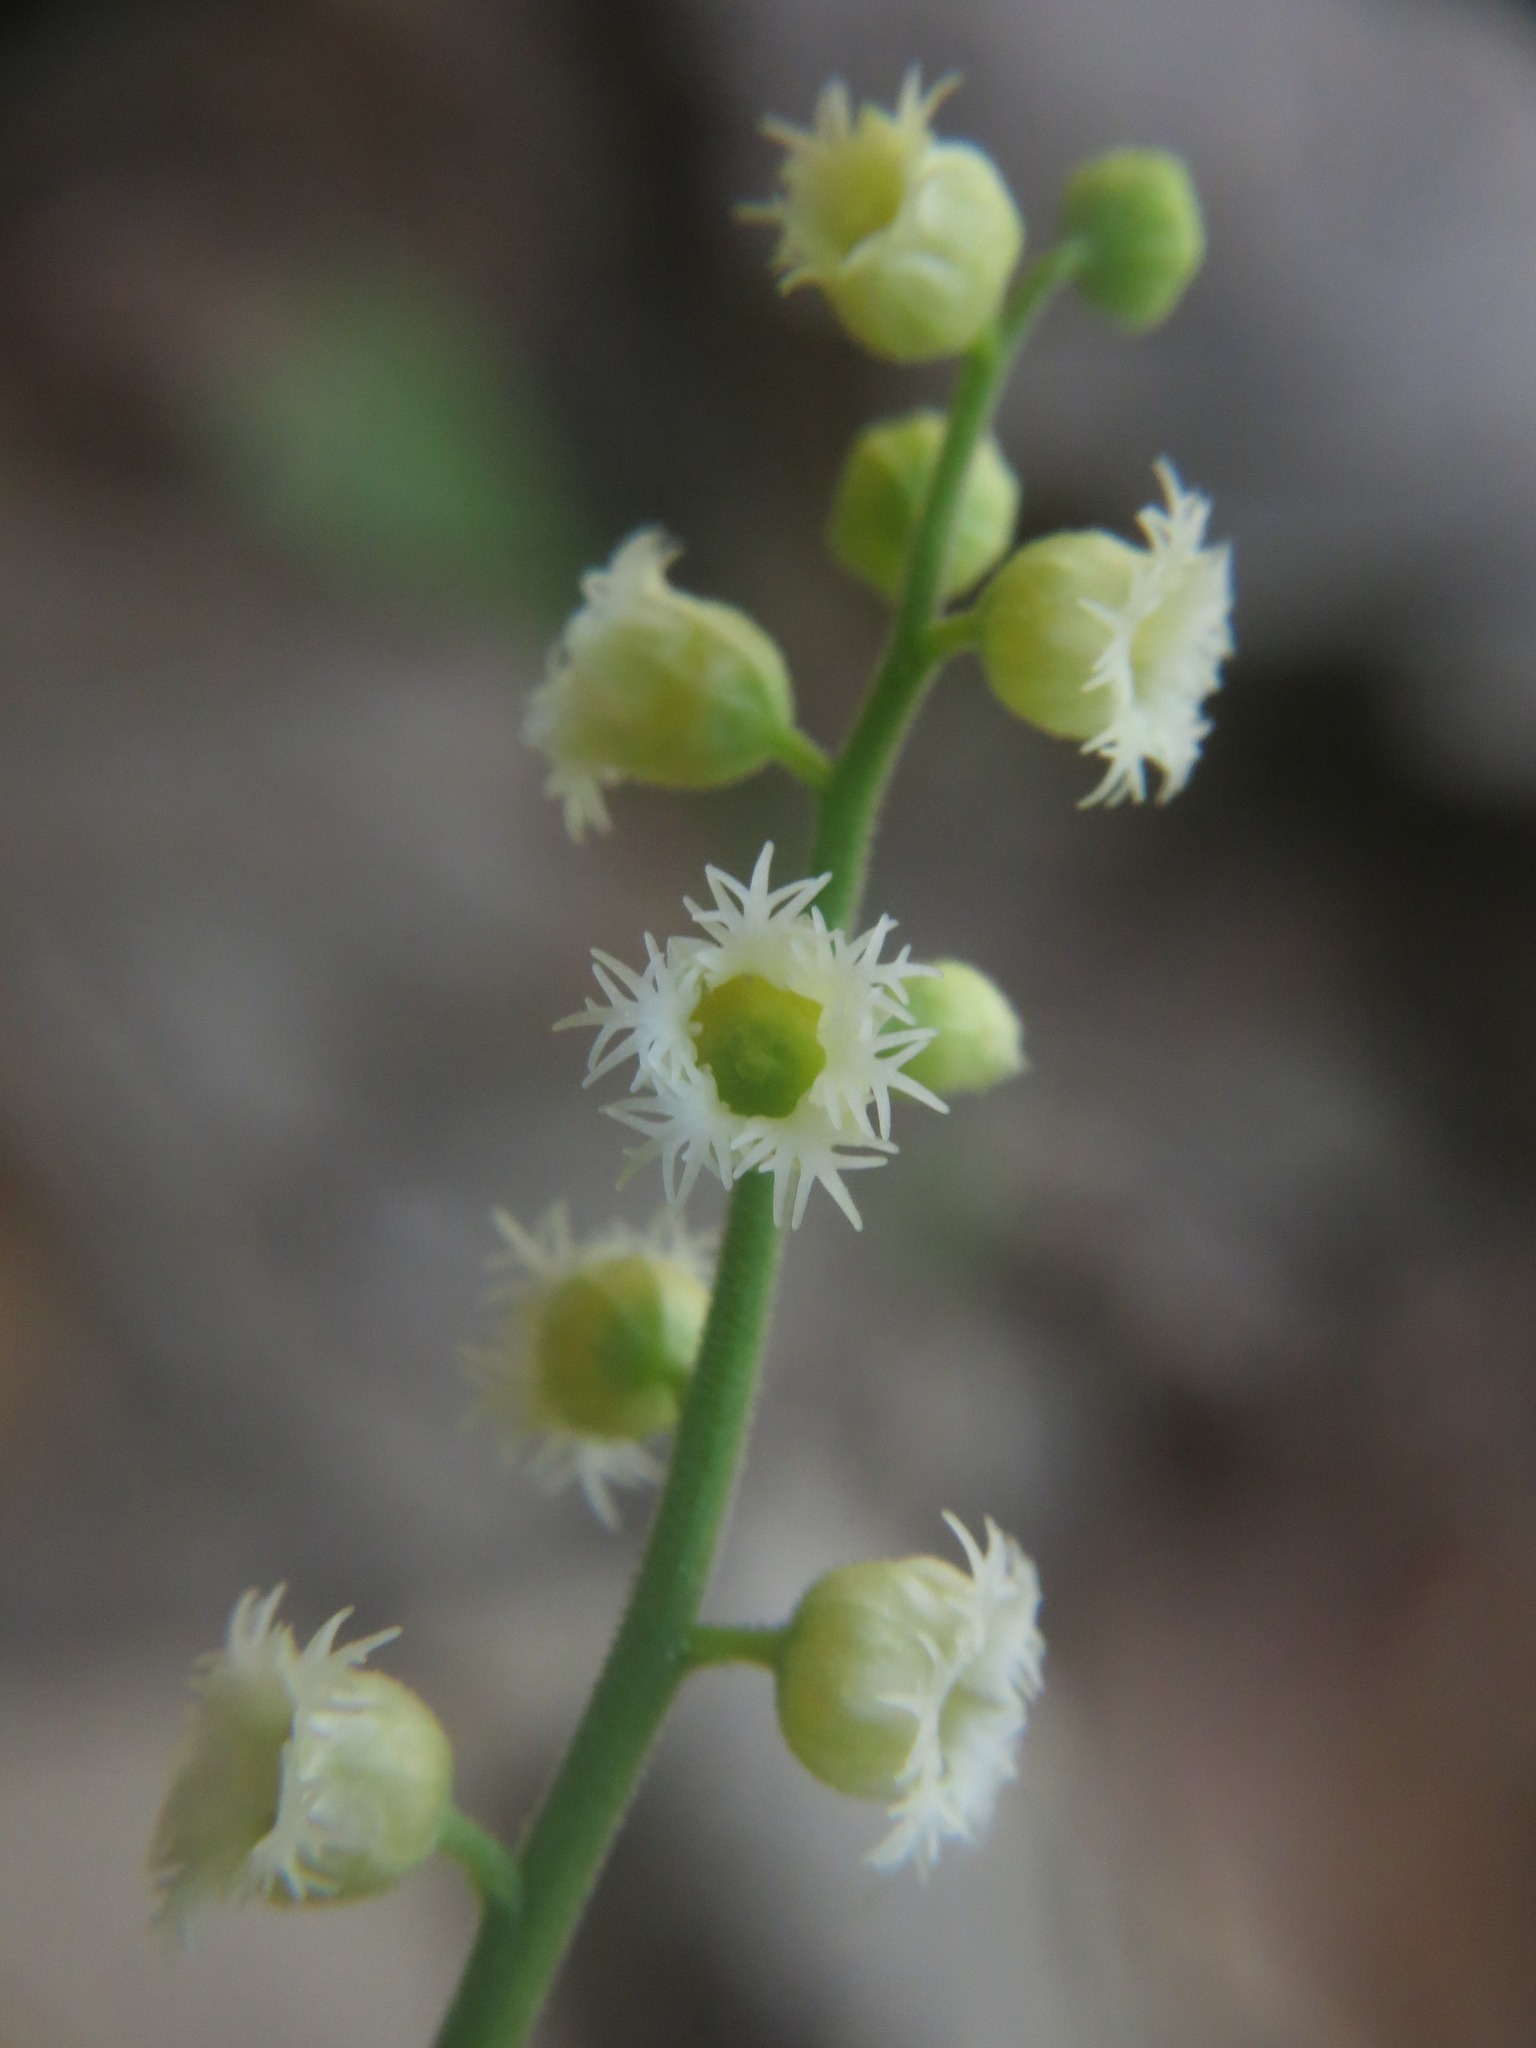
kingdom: Plantae
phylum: Tracheophyta
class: Magnoliopsida
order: Saxifragales
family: Saxifragaceae
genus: Mitella
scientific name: Mitella diphylla
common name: Coolwort
